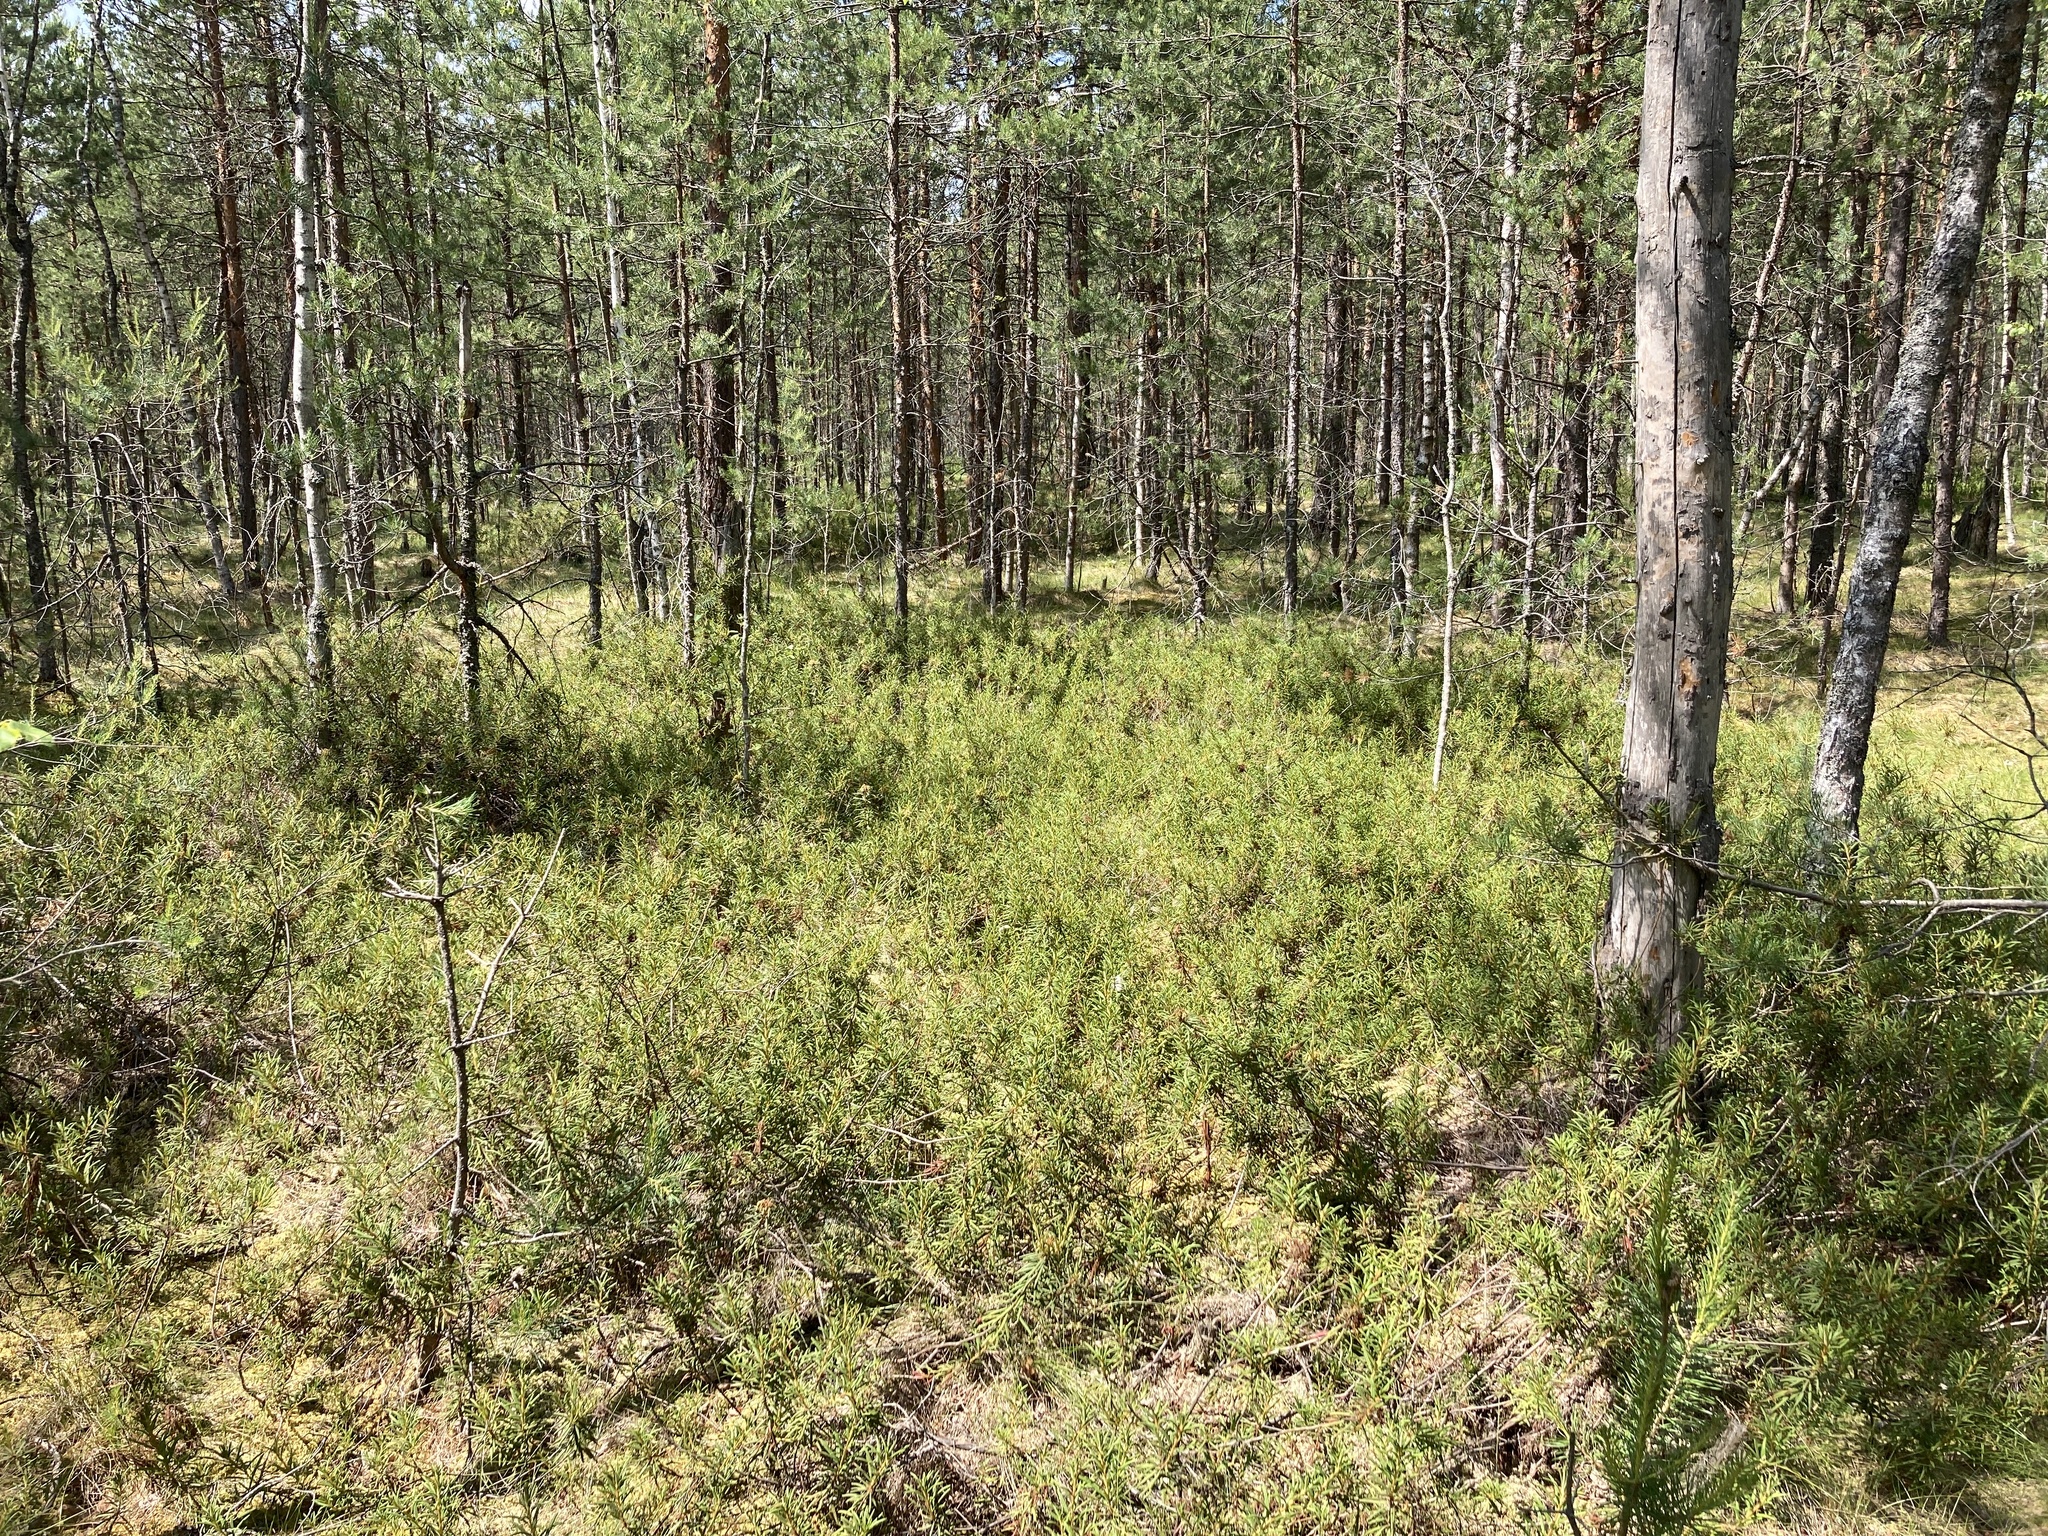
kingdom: Plantae
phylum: Tracheophyta
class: Magnoliopsida
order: Ericales
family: Ericaceae
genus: Rhododendron
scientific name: Rhododendron tomentosum
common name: Marsh labrador tea
